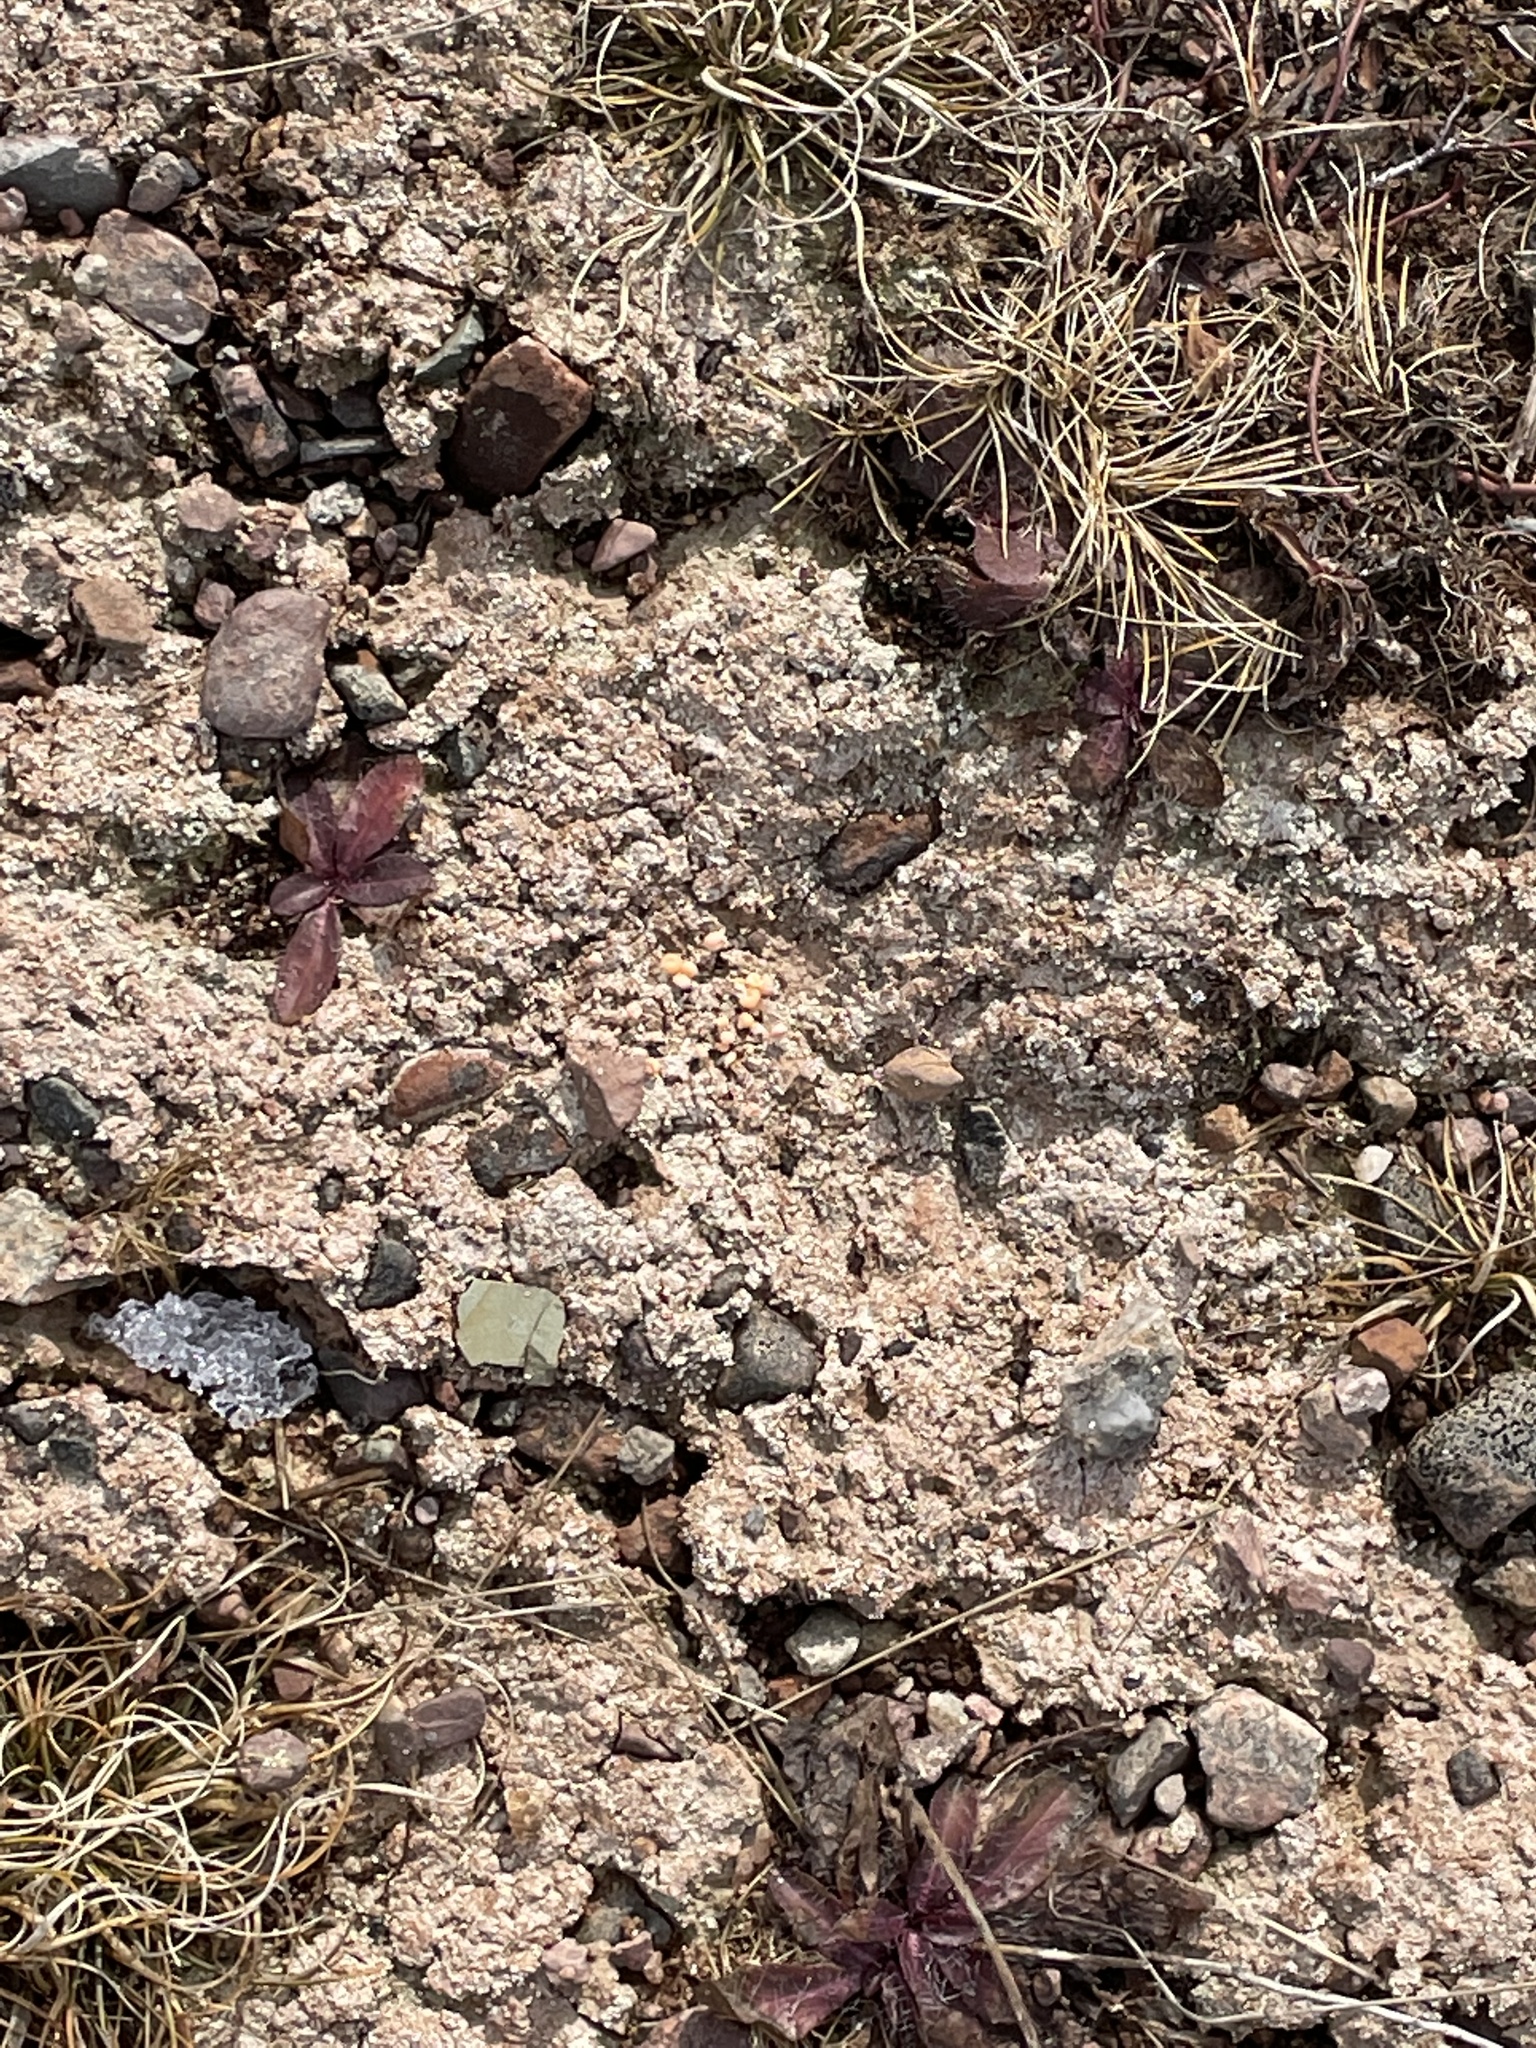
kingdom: Fungi
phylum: Ascomycota
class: Lecanoromycetes
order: Pertusariales
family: Icmadophilaceae
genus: Dibaeis
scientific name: Dibaeis baeomyces
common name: Pink earth lichen
